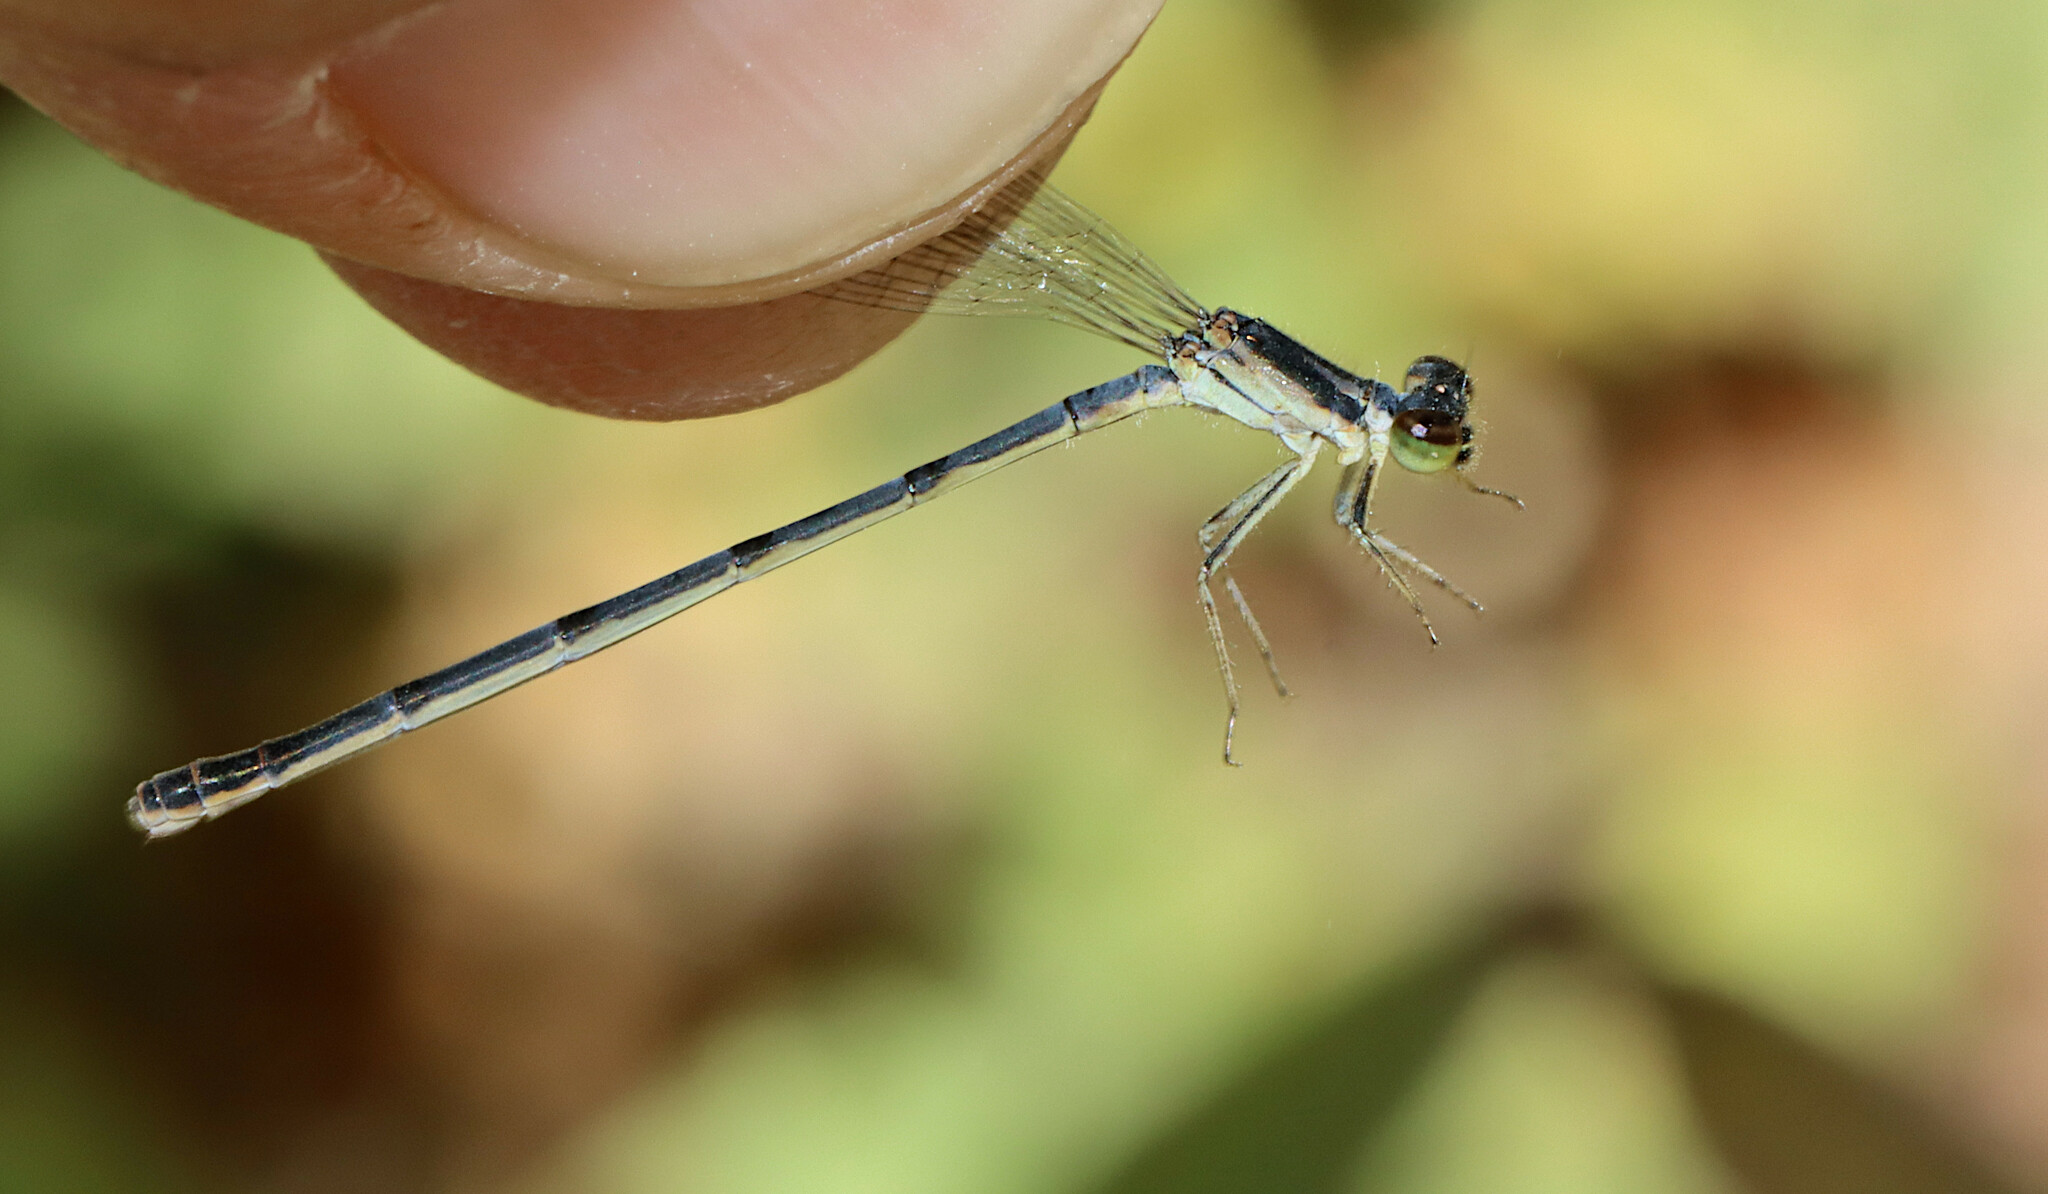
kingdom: Animalia
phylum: Arthropoda
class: Insecta
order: Odonata
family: Coenagrionidae
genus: Ischnura
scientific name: Ischnura posita
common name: Fragile forktail
